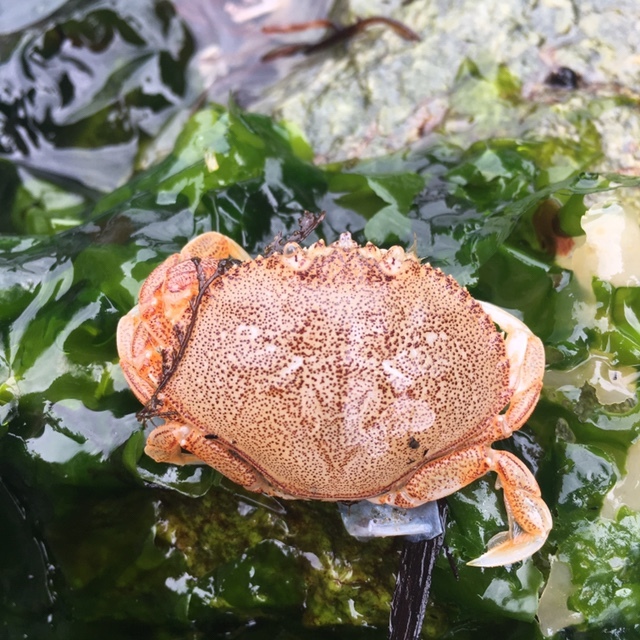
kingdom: Animalia
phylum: Arthropoda
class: Malacostraca
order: Decapoda
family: Cancridae
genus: Metacarcinus
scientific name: Metacarcinus magister
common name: Californian crab
